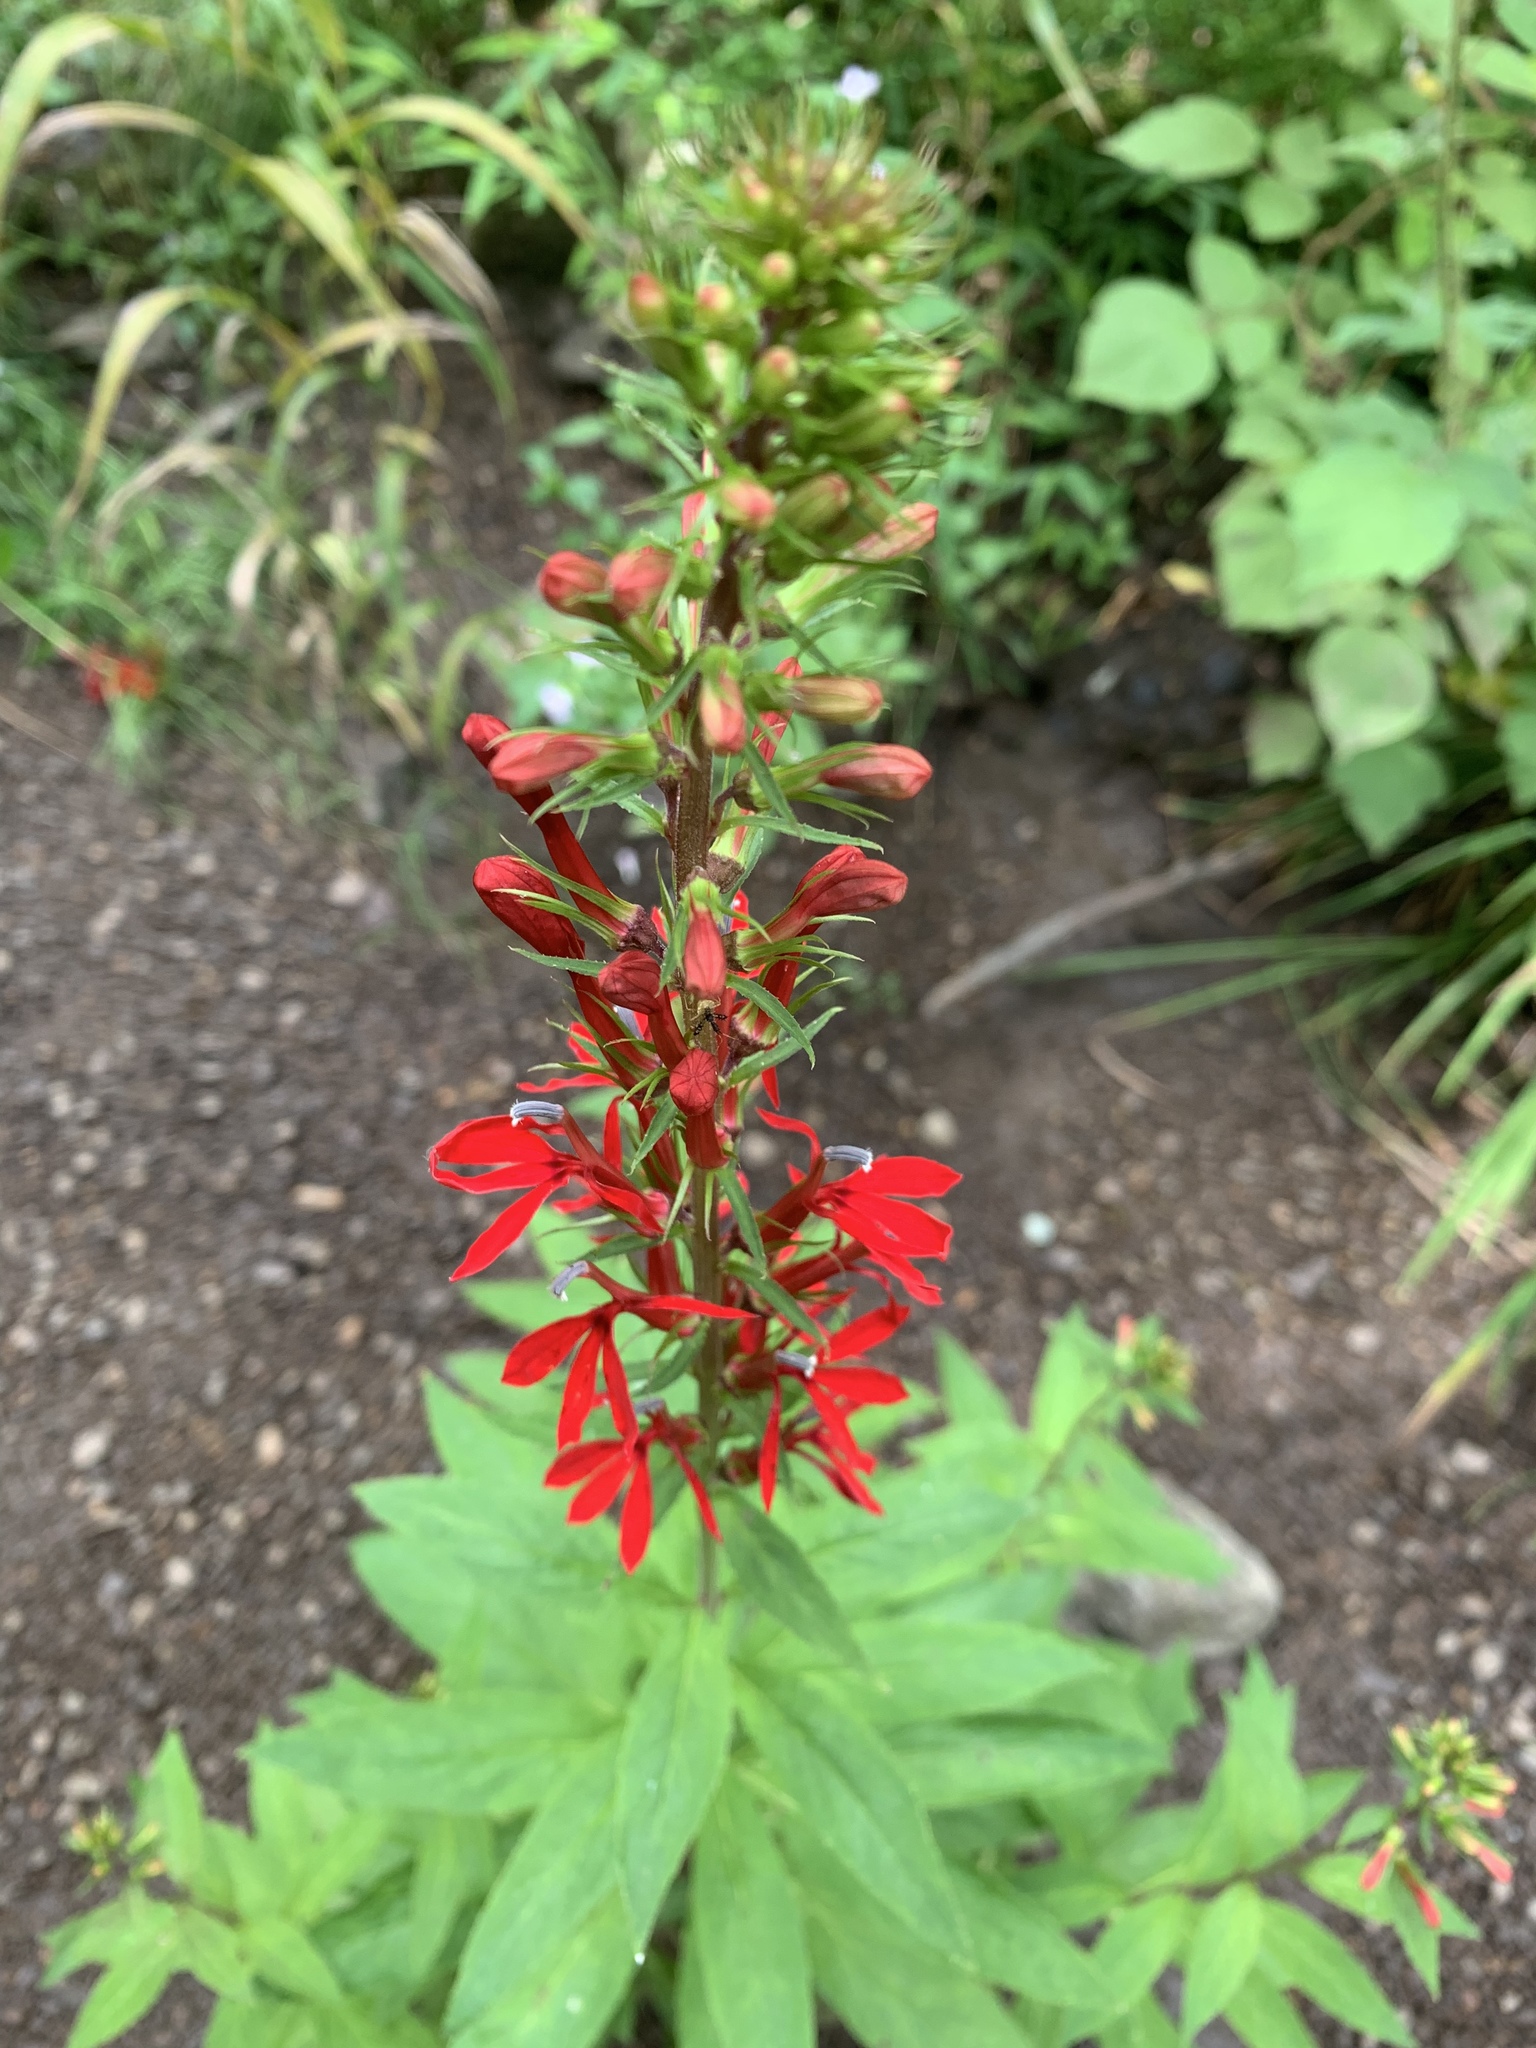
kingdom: Plantae
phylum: Tracheophyta
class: Magnoliopsida
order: Asterales
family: Campanulaceae
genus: Lobelia
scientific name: Lobelia cardinalis
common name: Cardinal flower
